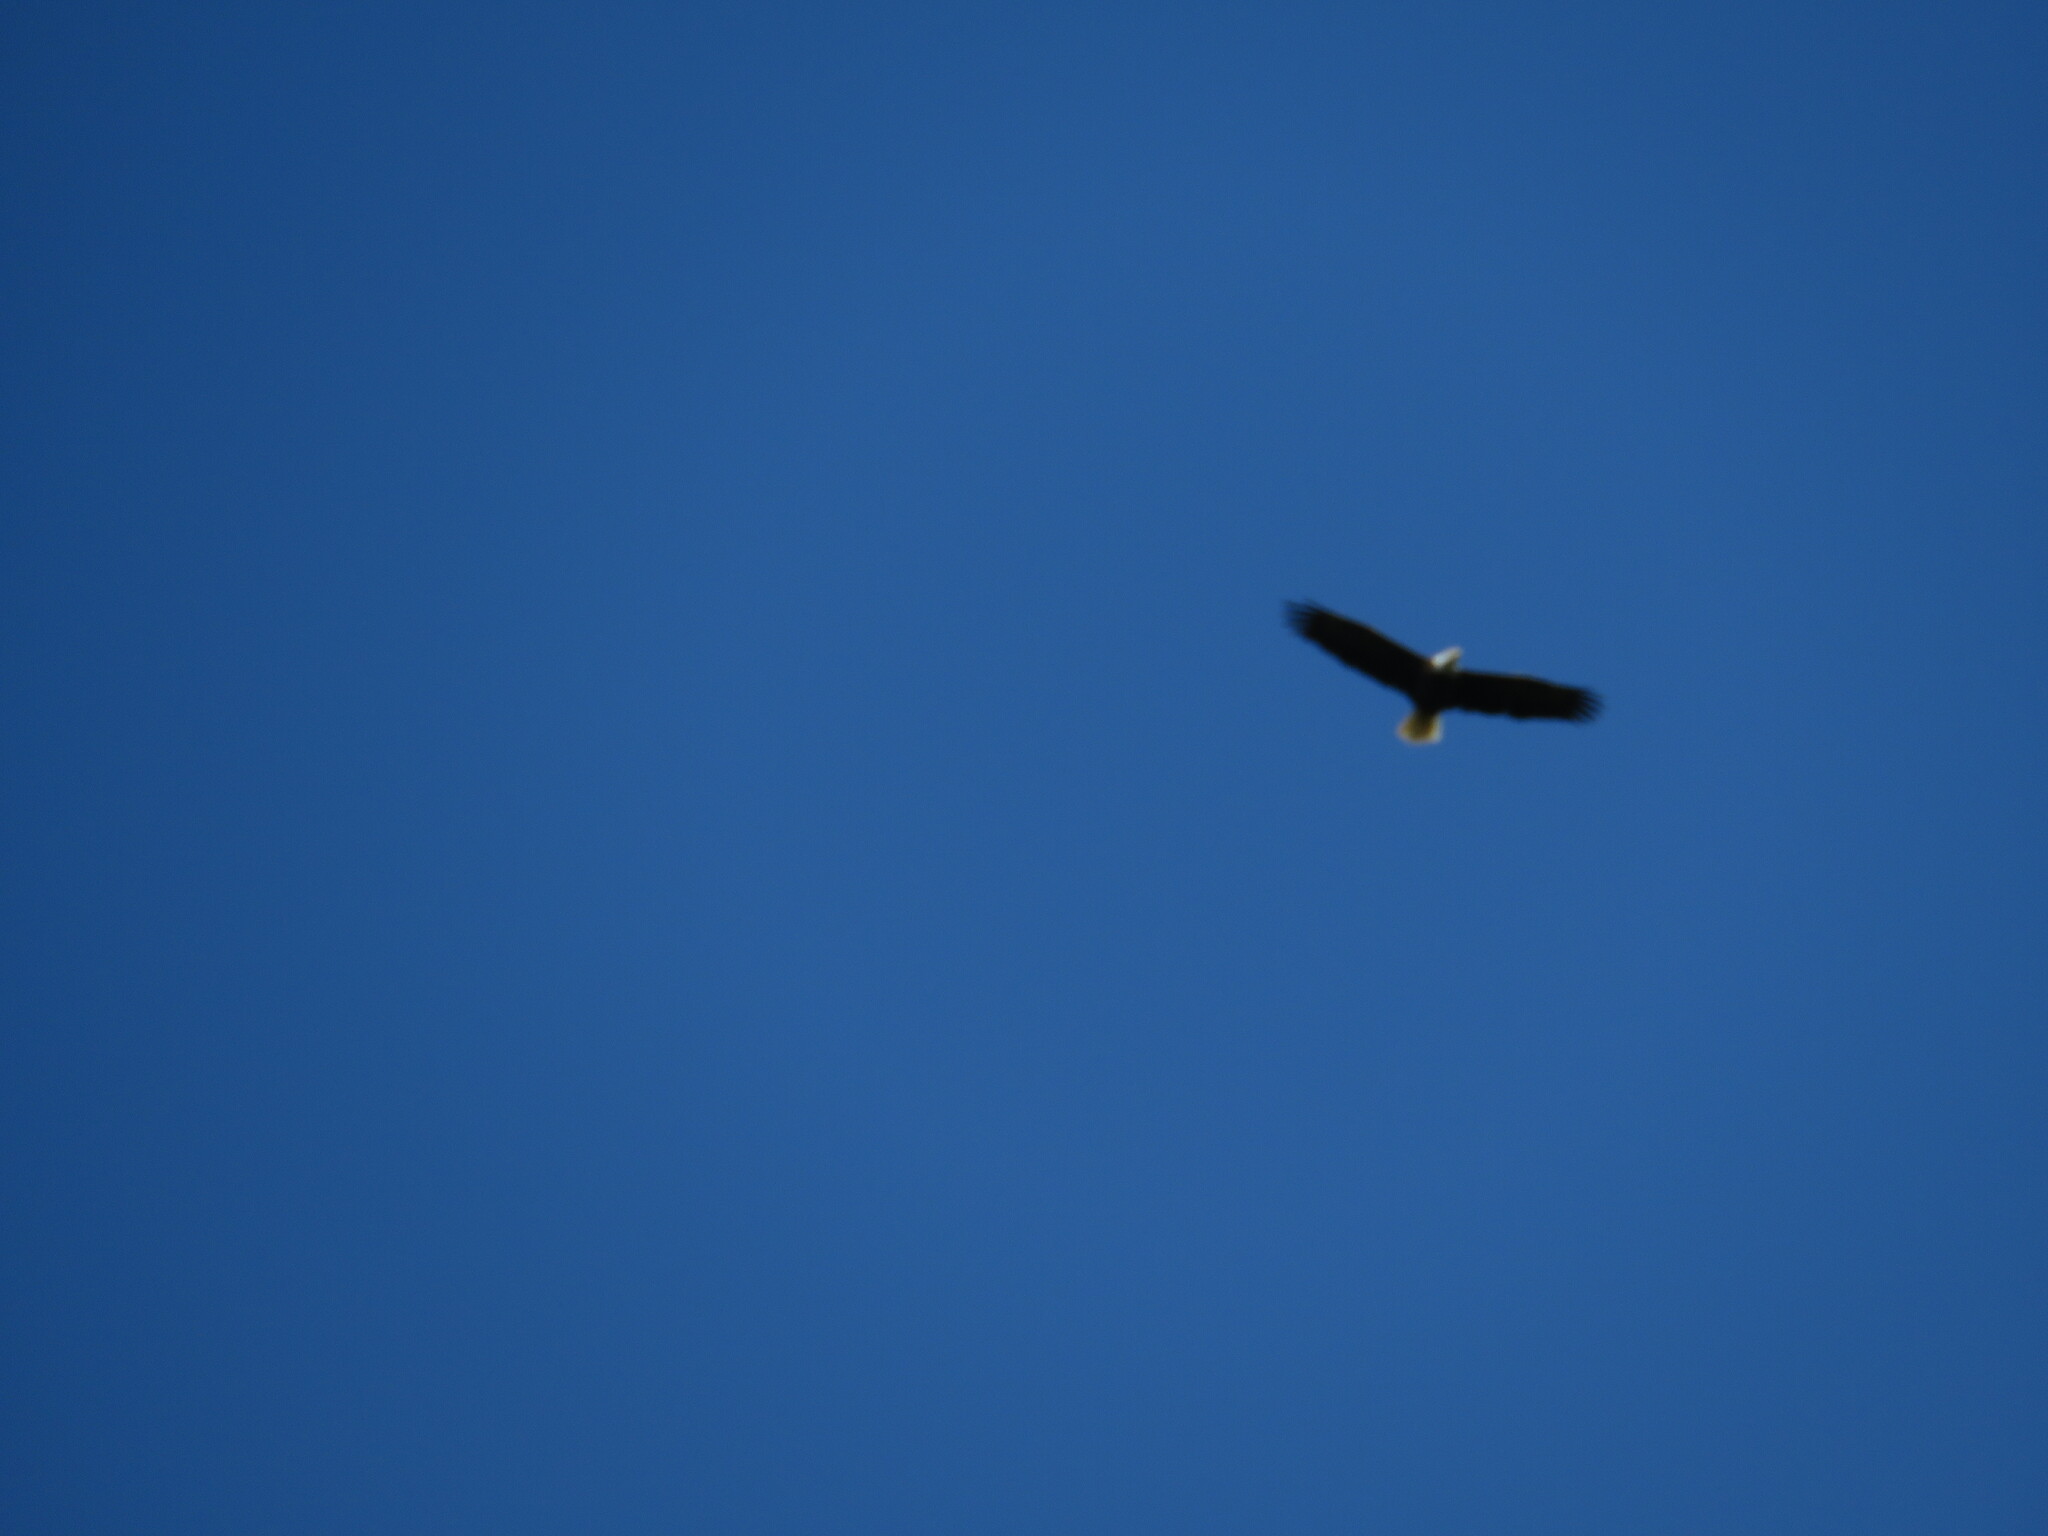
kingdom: Animalia
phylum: Chordata
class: Aves
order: Accipitriformes
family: Accipitridae
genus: Haliaeetus
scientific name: Haliaeetus leucocephalus
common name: Bald eagle
